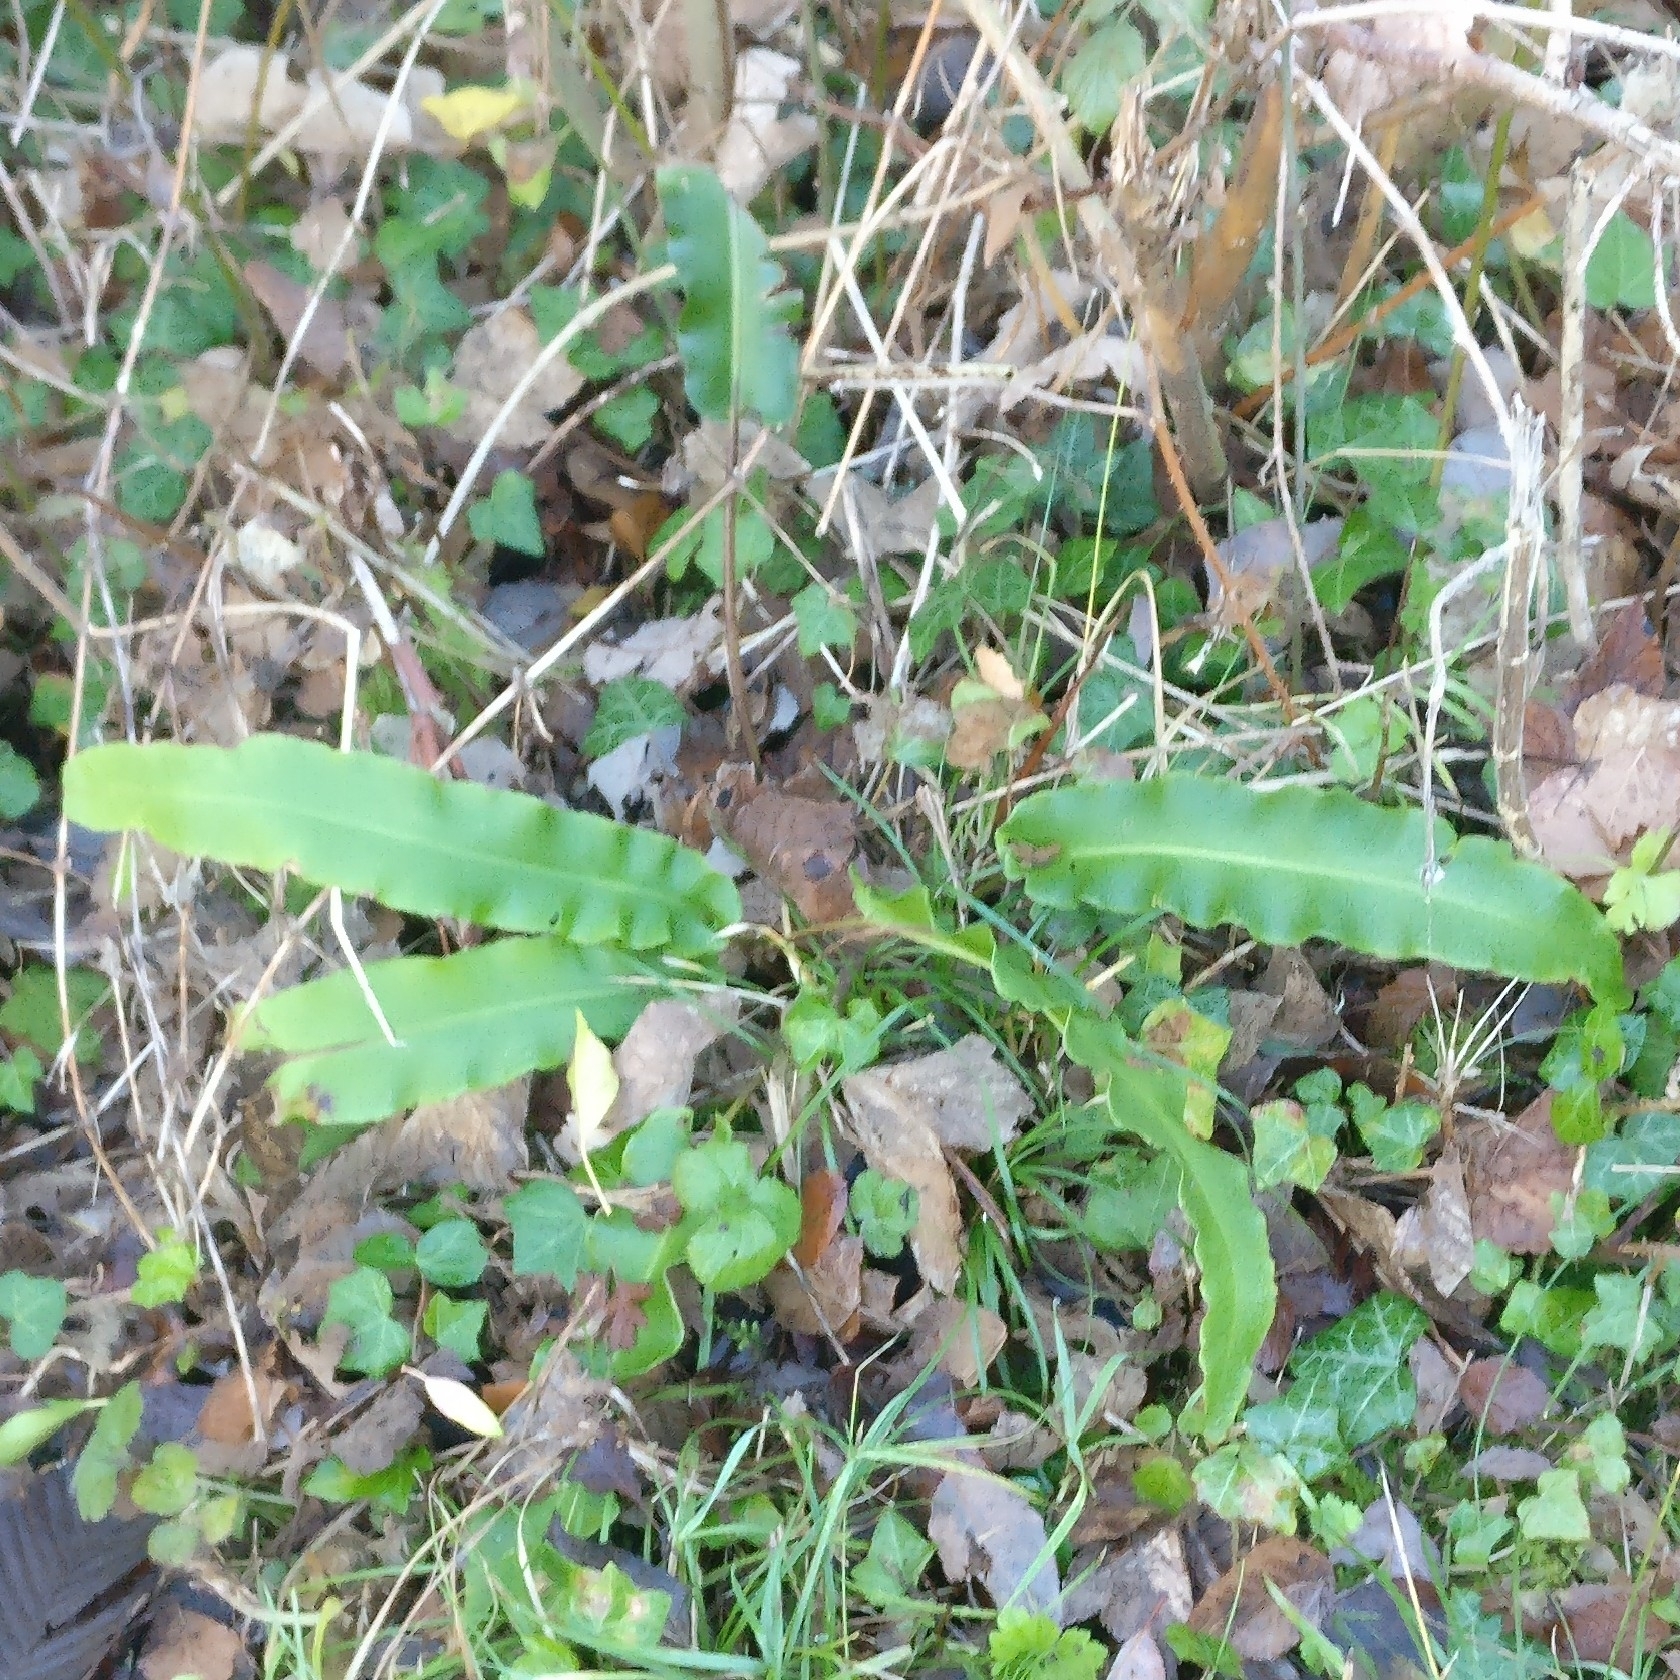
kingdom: Plantae
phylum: Tracheophyta
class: Polypodiopsida
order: Polypodiales
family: Aspleniaceae
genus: Asplenium
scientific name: Asplenium scolopendrium
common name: Hart's-tongue fern
